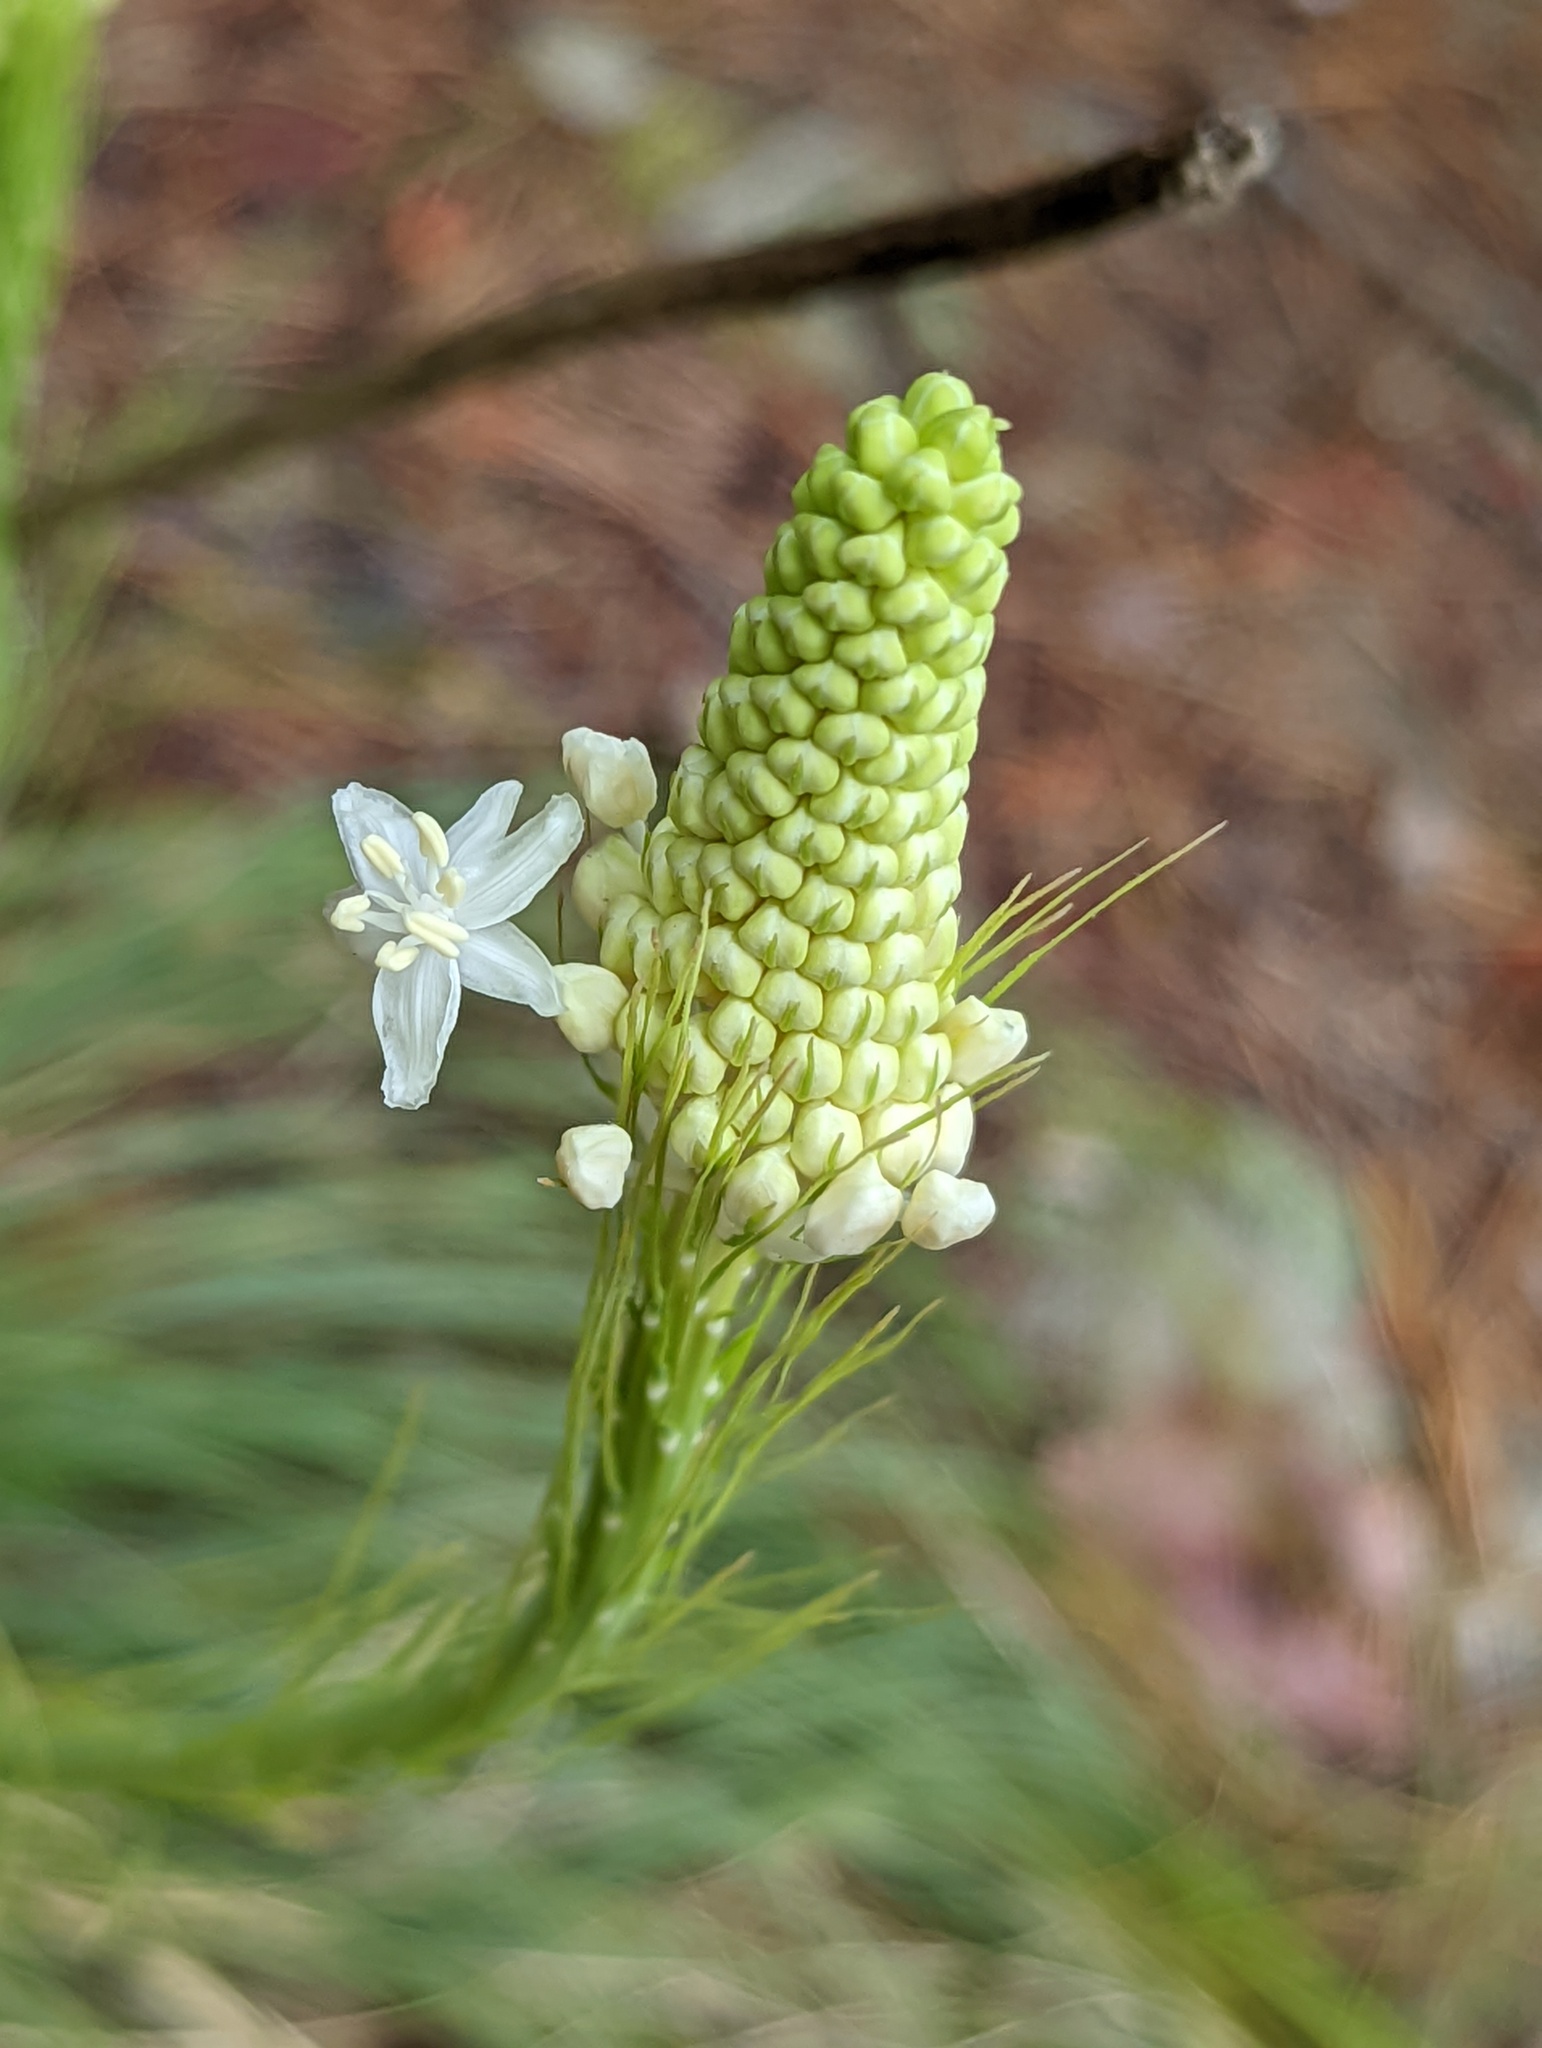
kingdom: Plantae
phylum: Tracheophyta
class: Liliopsida
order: Liliales
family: Melanthiaceae
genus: Xerophyllum
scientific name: Xerophyllum asphodeloides
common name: Mountain-asphodel
